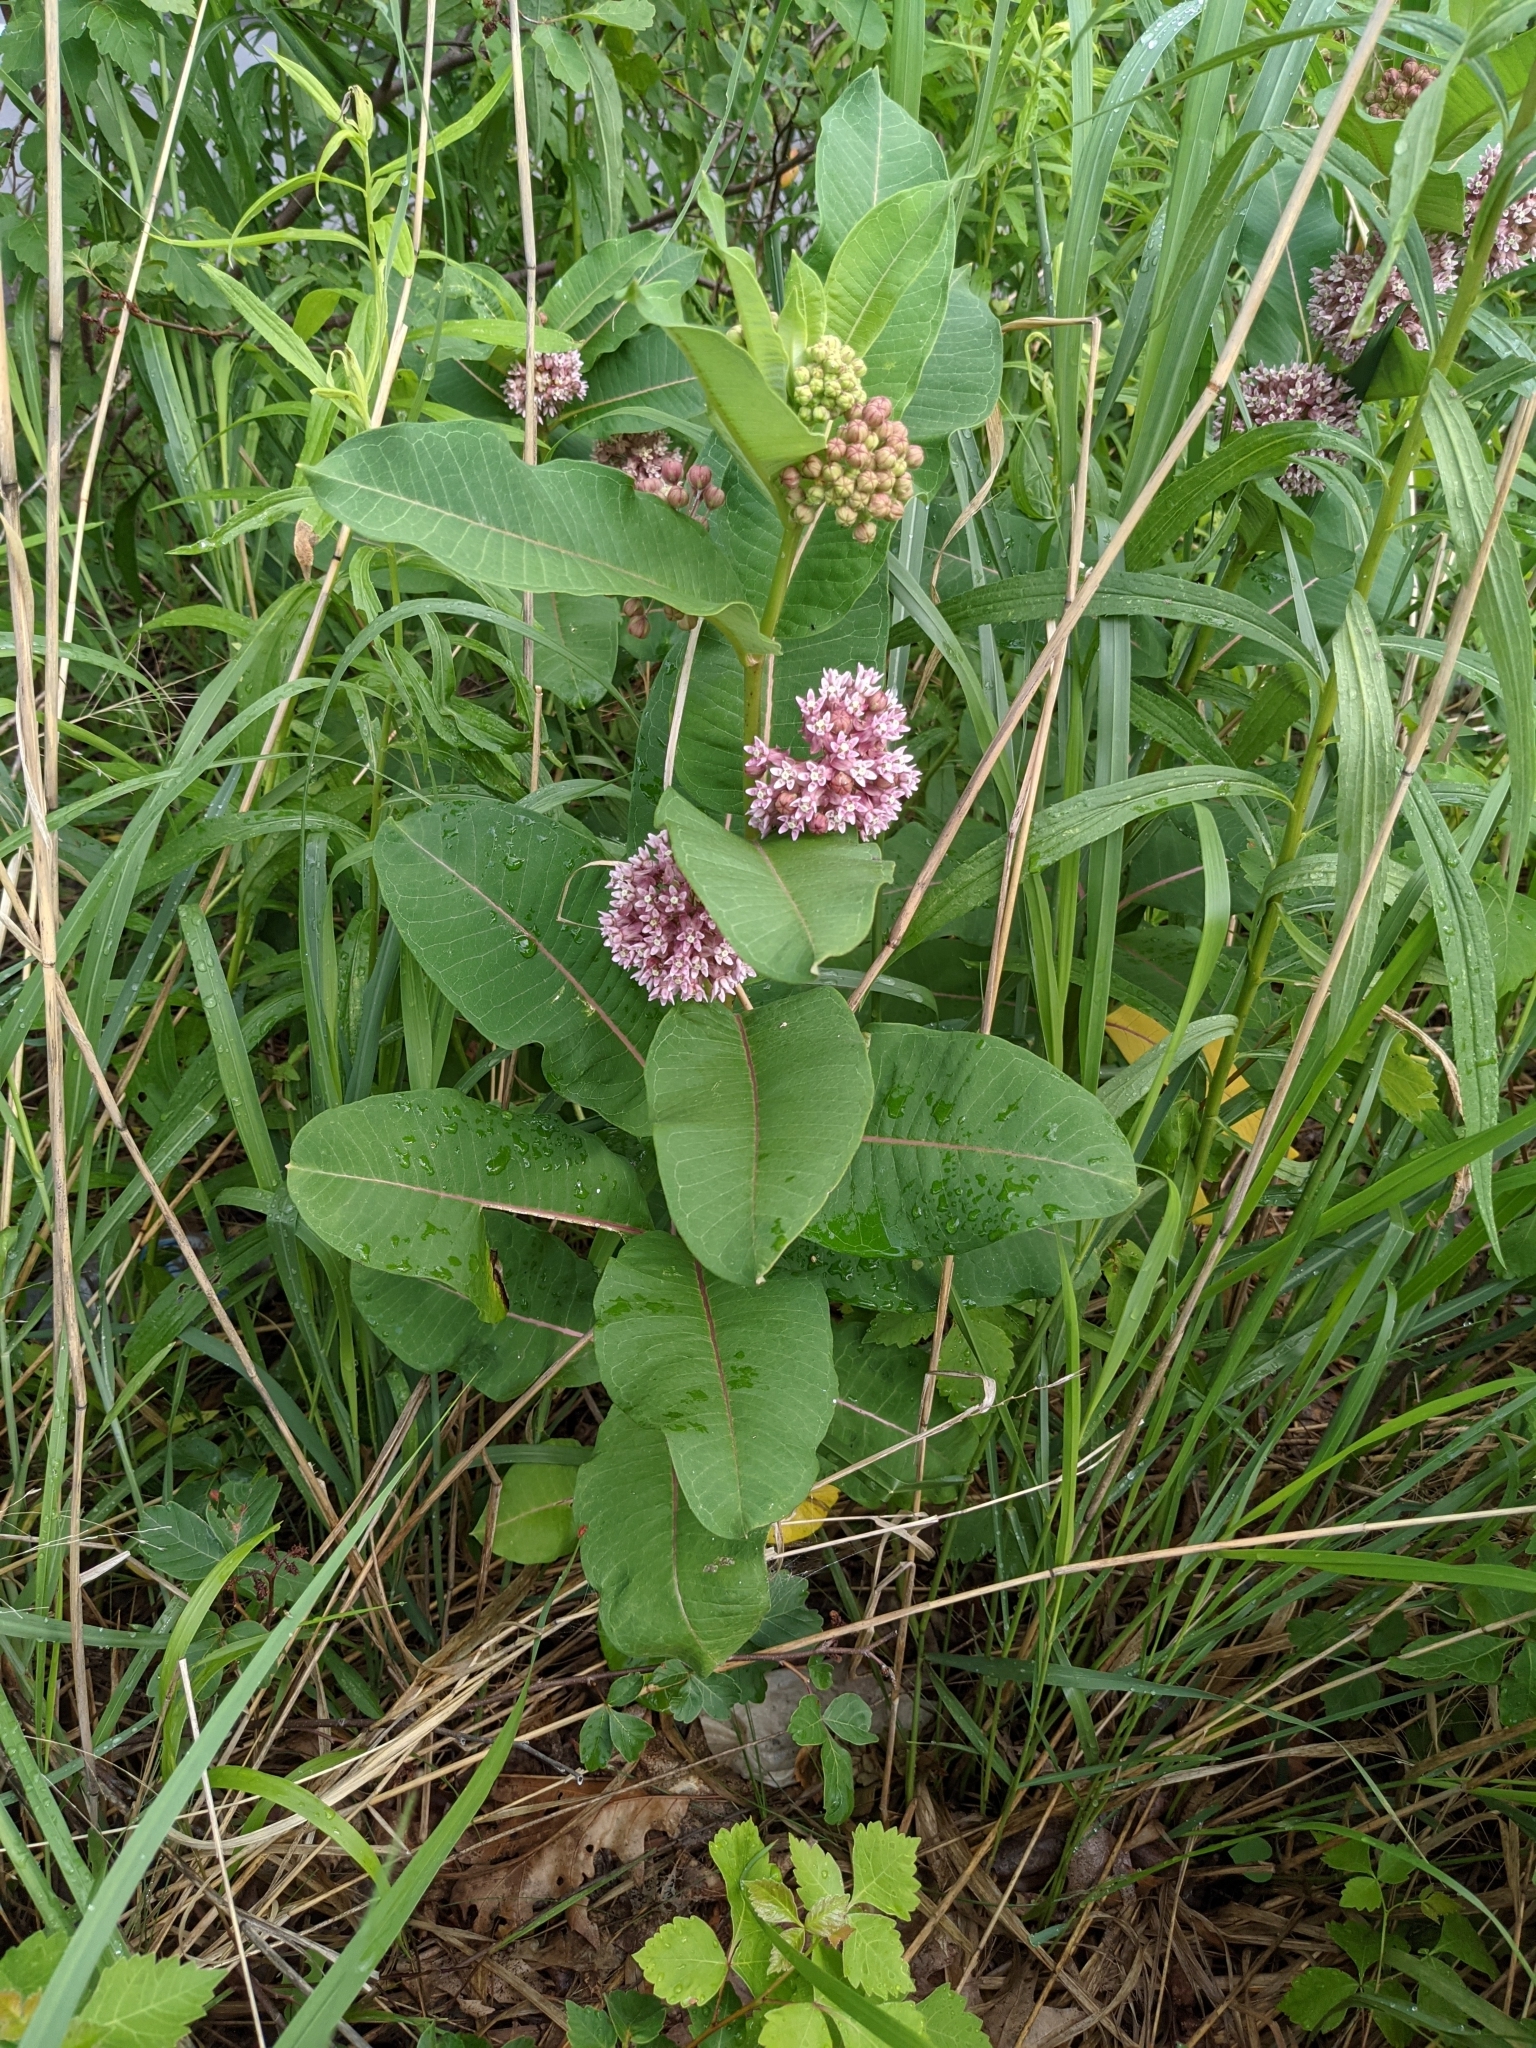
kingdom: Plantae
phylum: Tracheophyta
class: Magnoliopsida
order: Gentianales
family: Apocynaceae
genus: Asclepias
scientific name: Asclepias syriaca
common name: Common milkweed
